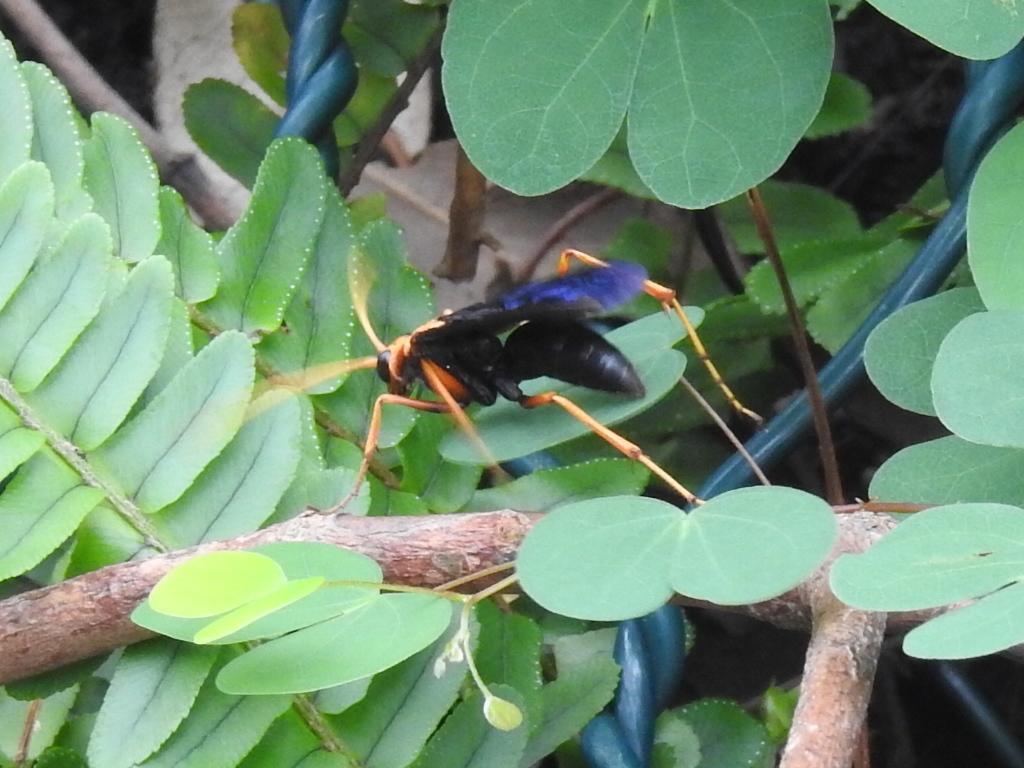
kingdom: Animalia
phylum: Arthropoda
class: Insecta
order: Hymenoptera
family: Pompilidae
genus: Cyphononyx
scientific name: Cyphononyx bipartitus
